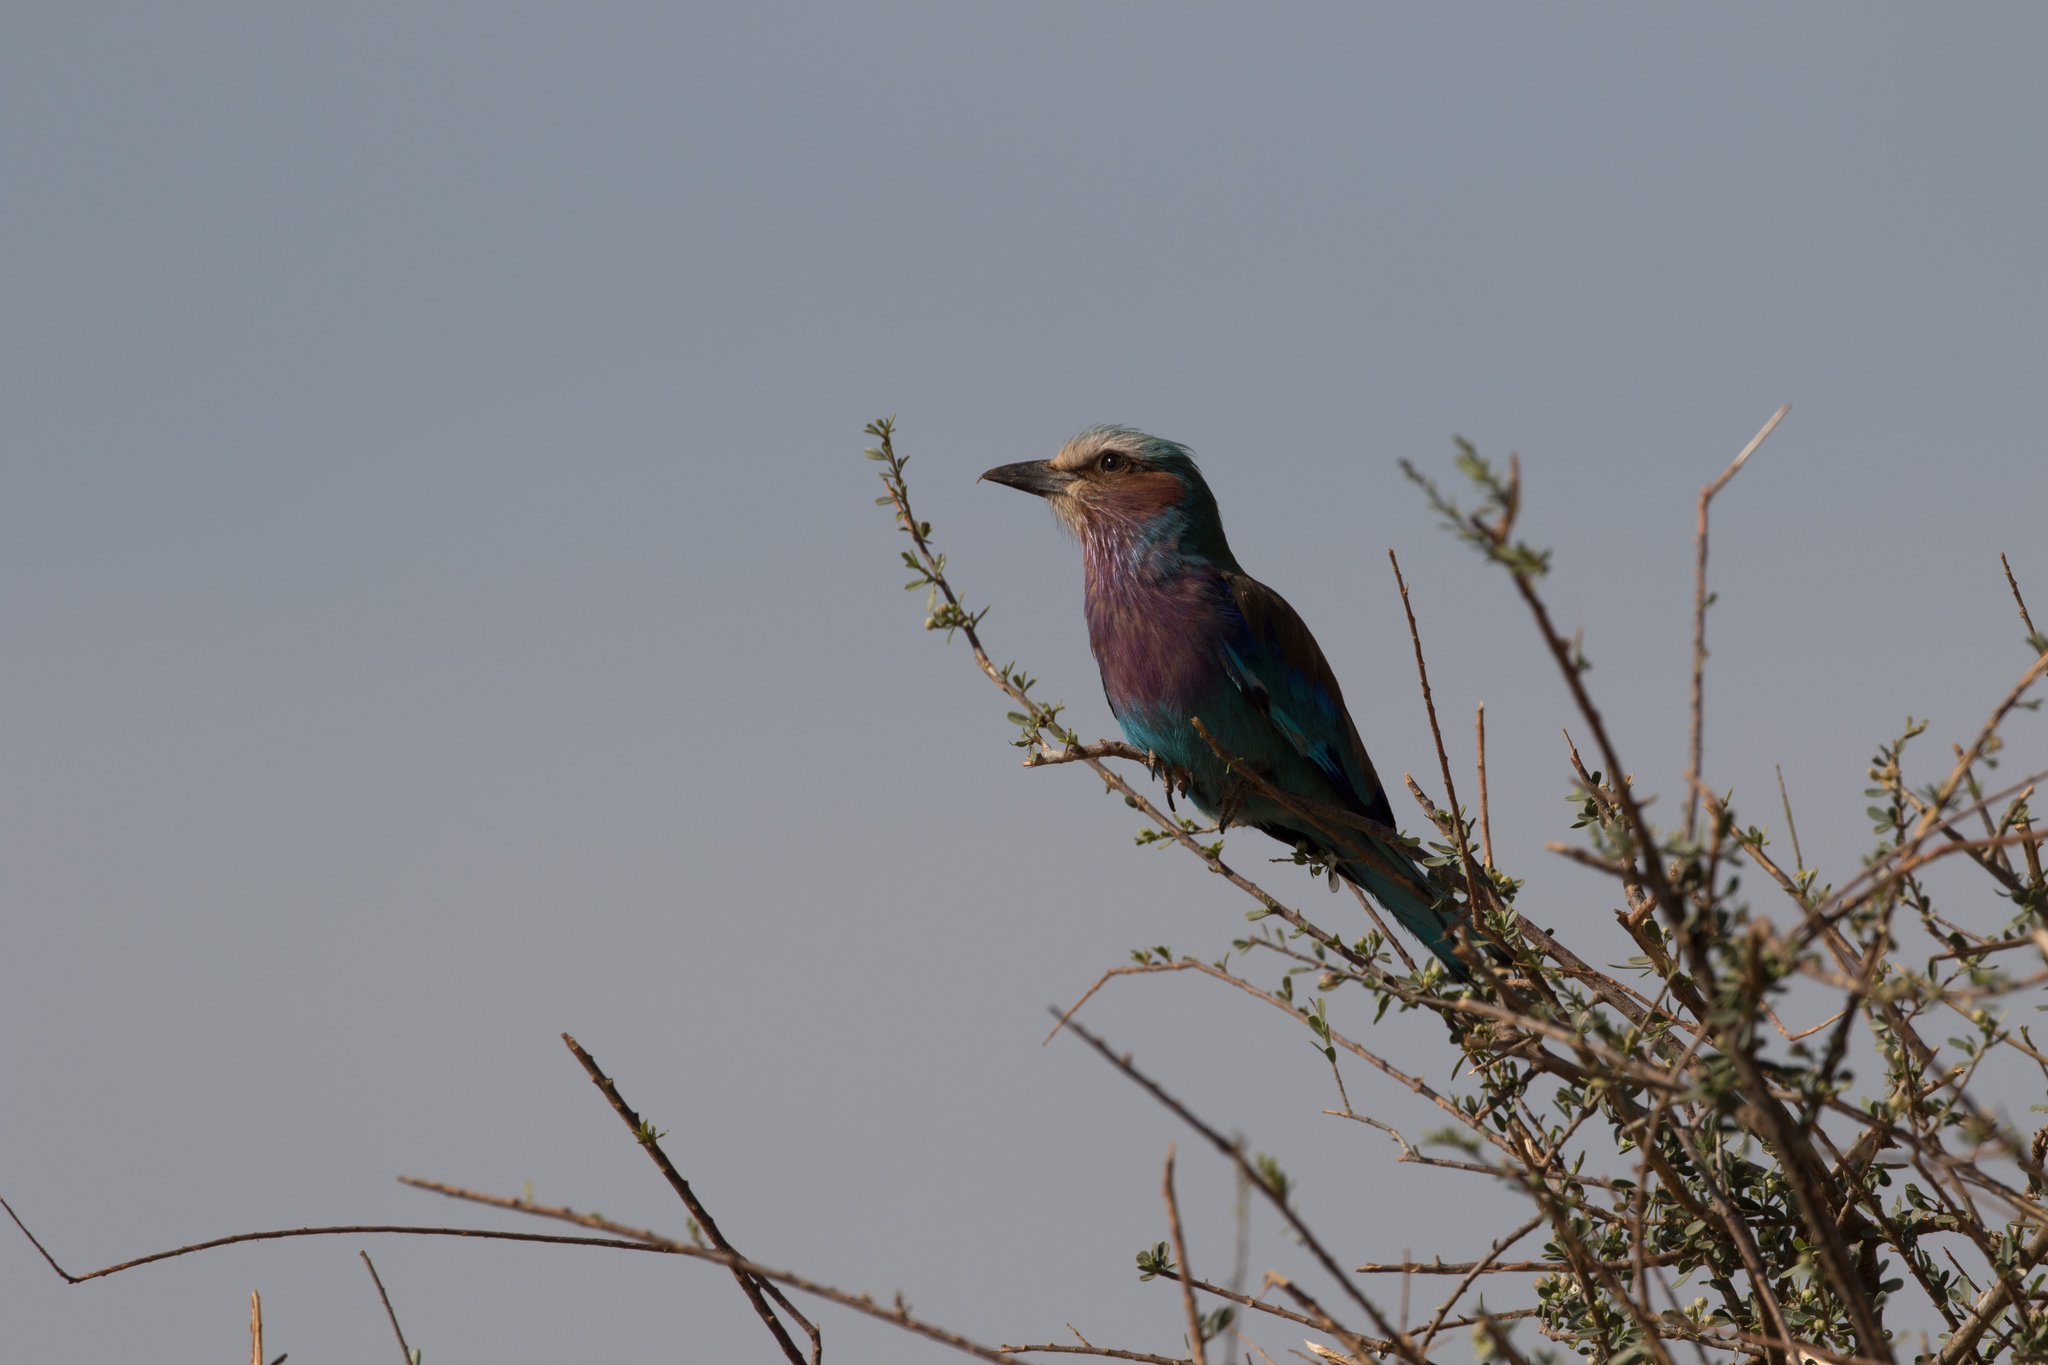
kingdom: Animalia
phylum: Chordata
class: Aves
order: Coraciiformes
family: Coraciidae
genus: Coracias
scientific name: Coracias caudatus
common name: Lilac-breasted roller
